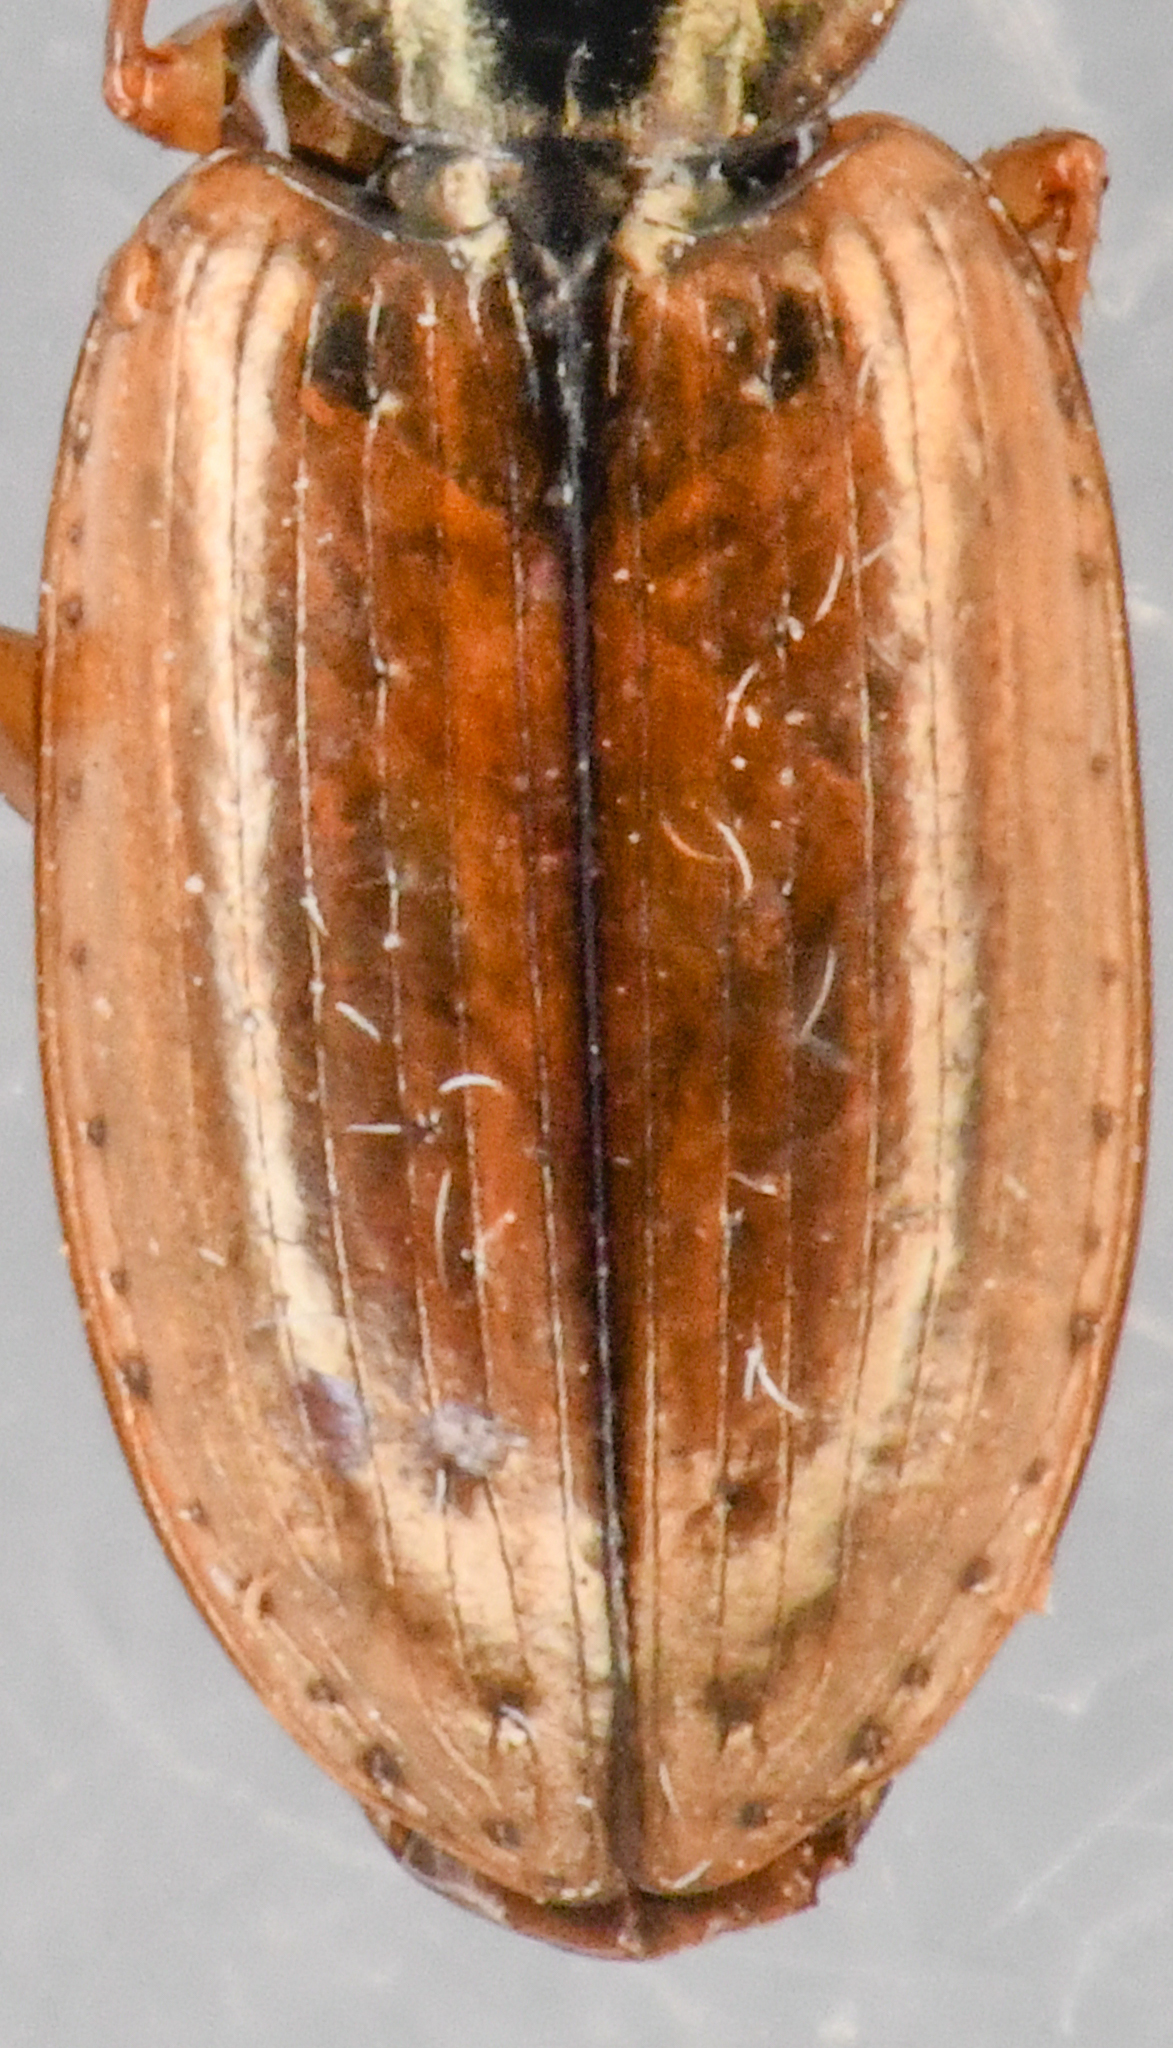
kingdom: Animalia
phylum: Arthropoda
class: Insecta
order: Coleoptera
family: Carabidae
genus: Agonum
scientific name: Agonum limbatum
